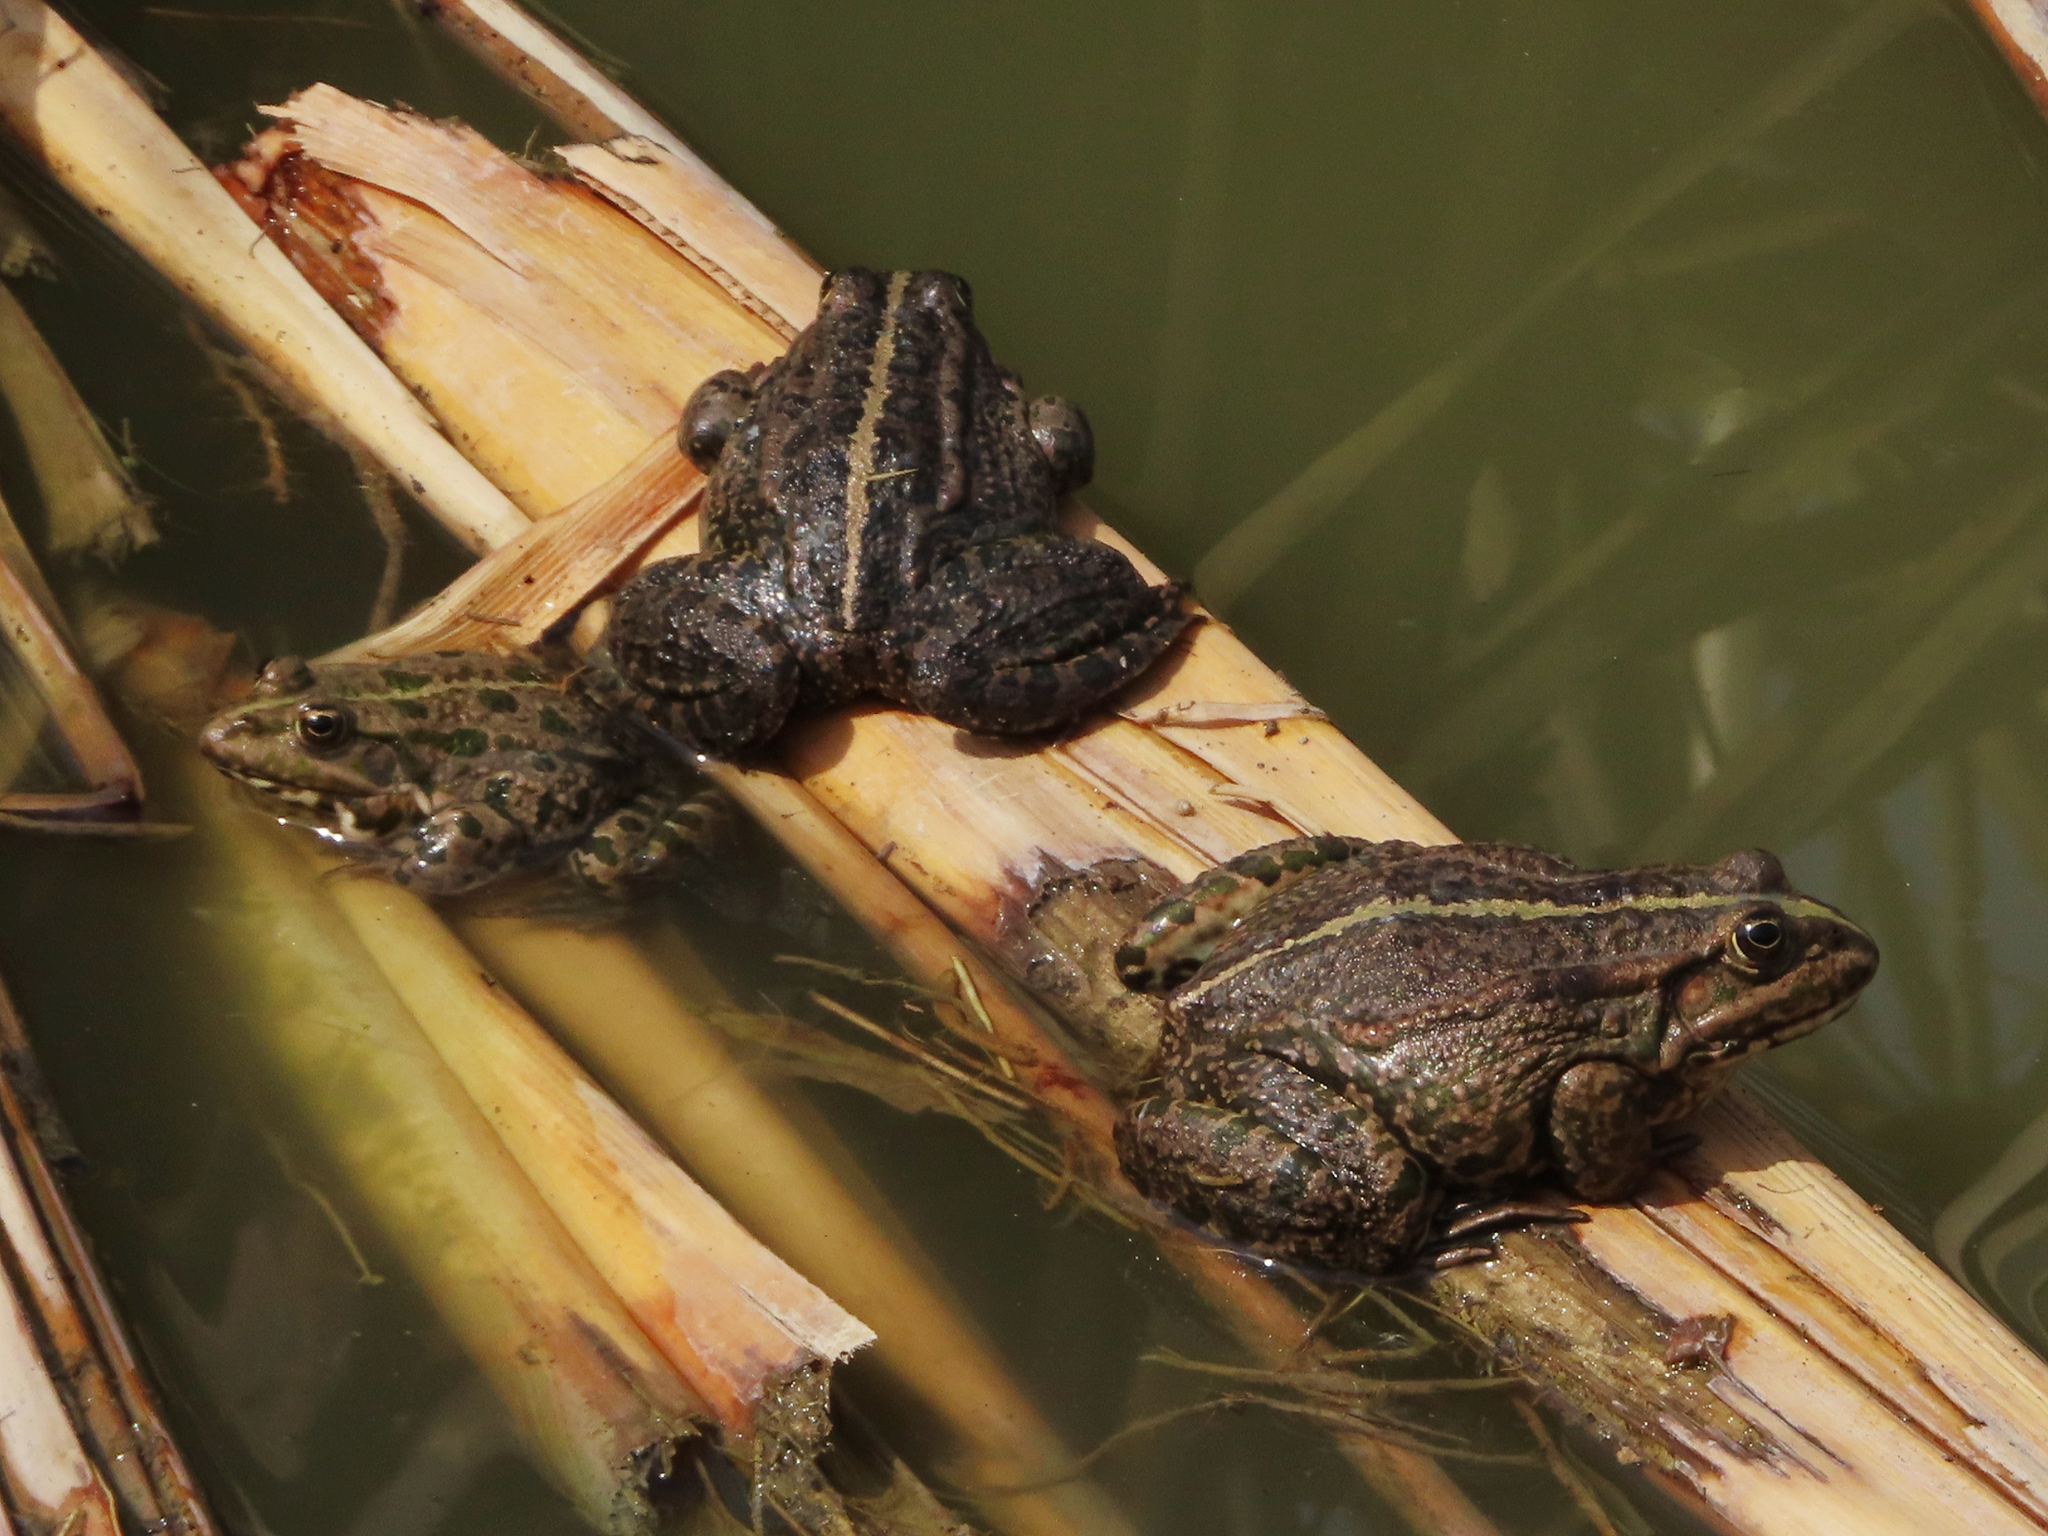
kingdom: Animalia
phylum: Chordata
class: Amphibia
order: Anura
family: Ranidae
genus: Pelophylax
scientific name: Pelophylax ridibundus
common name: Marsh frog
